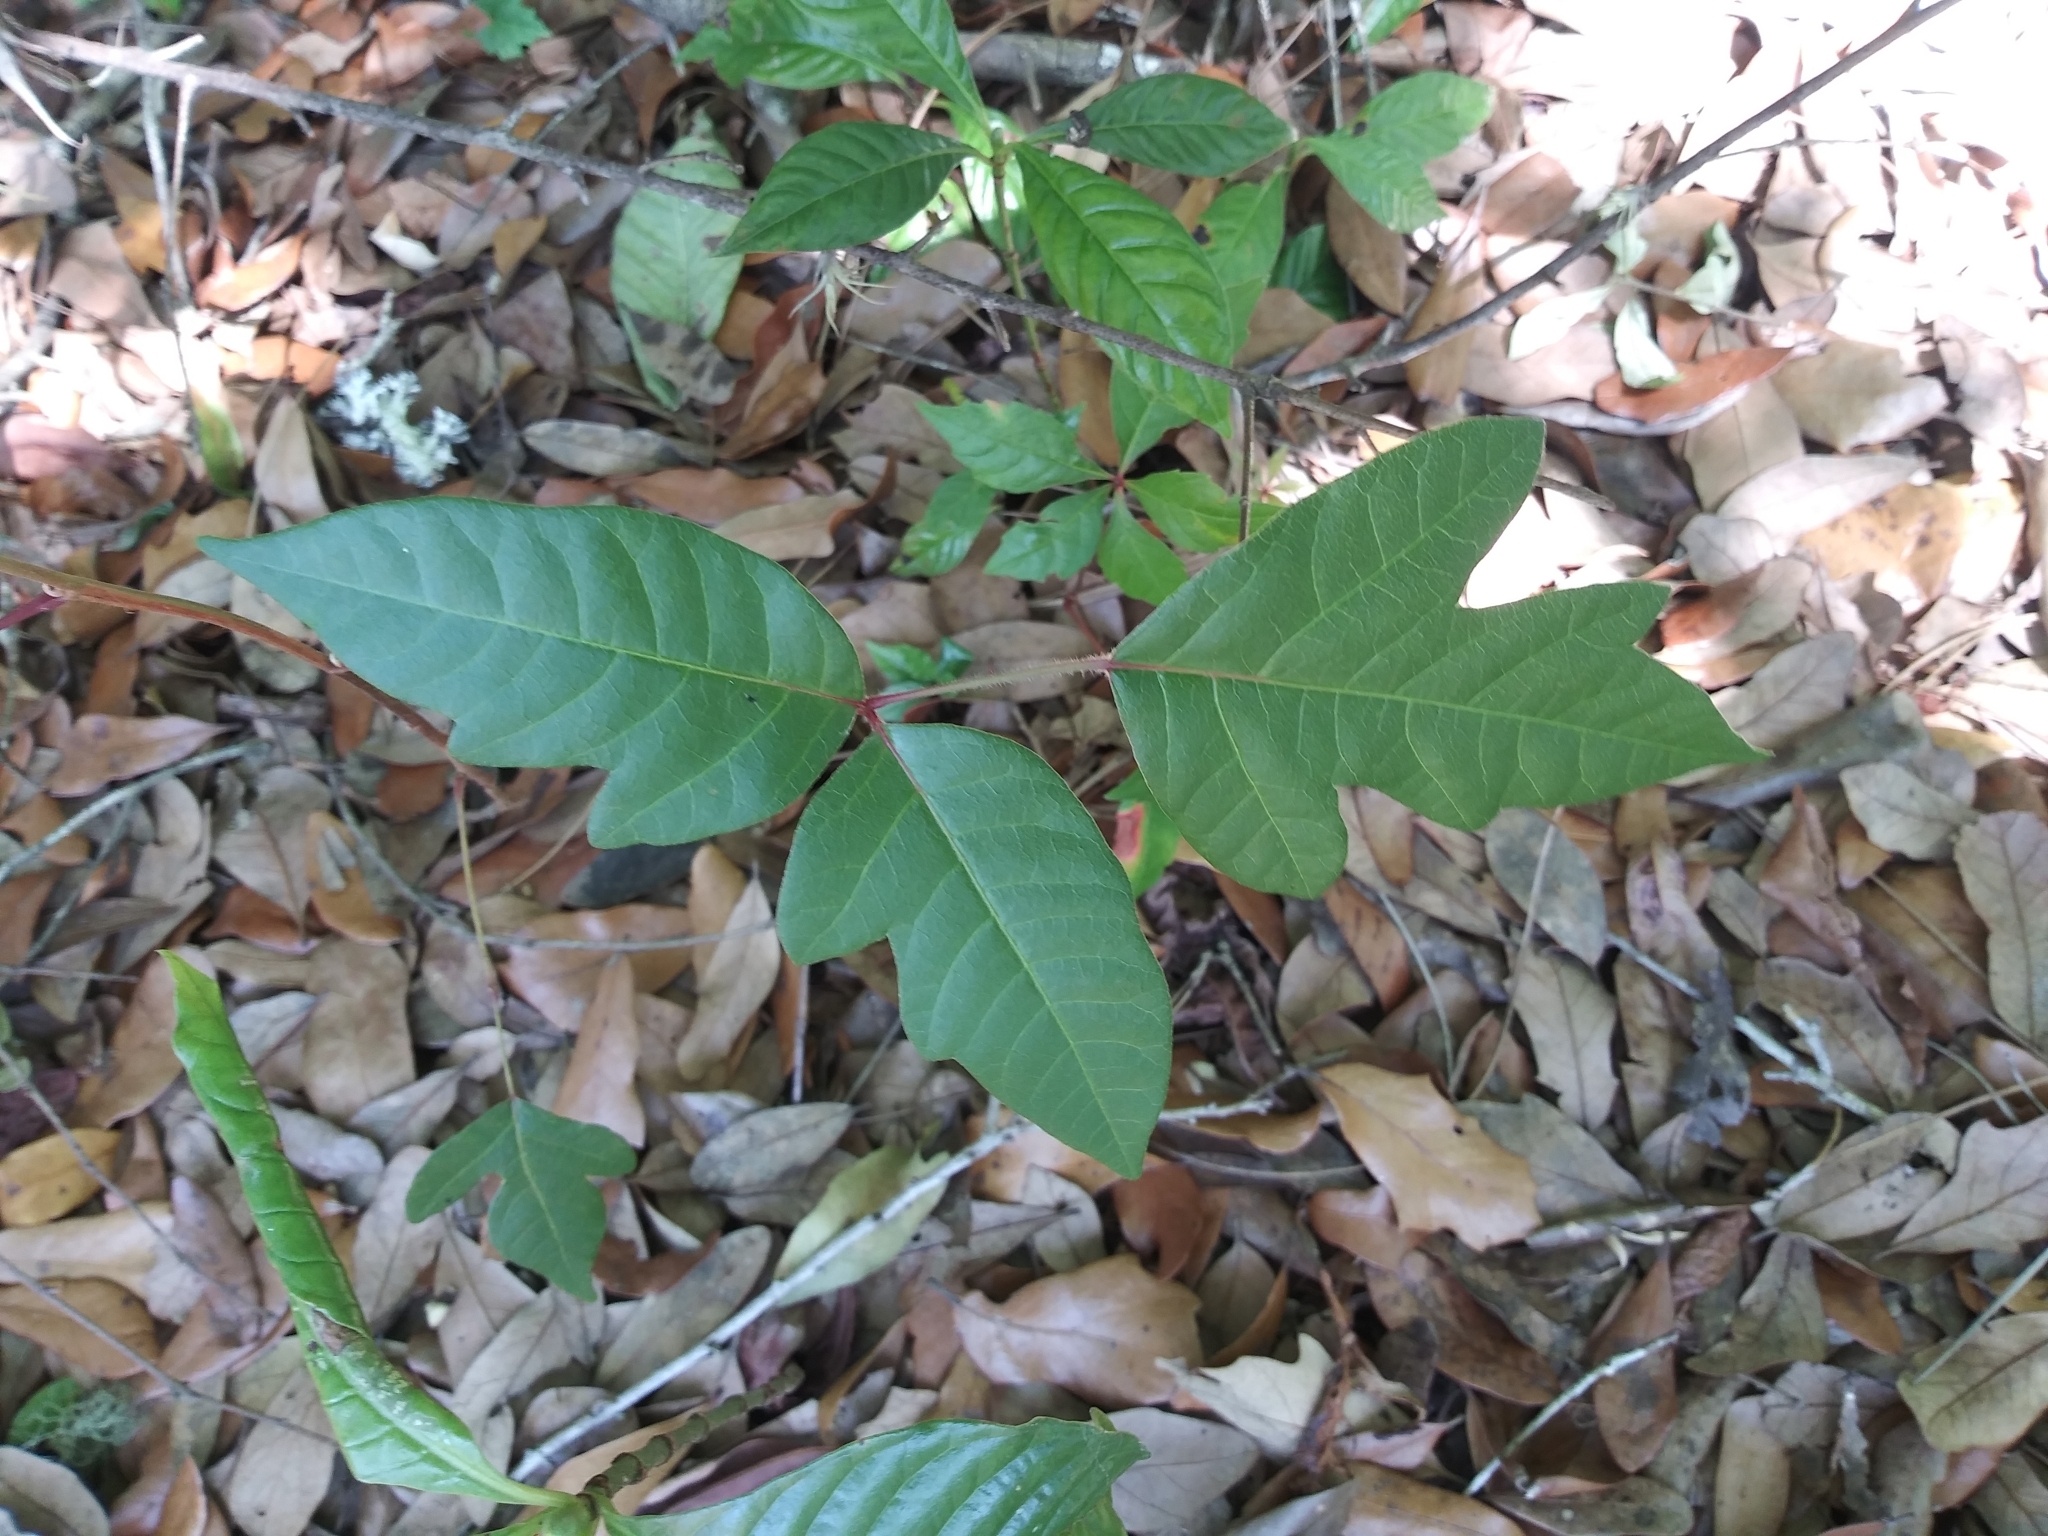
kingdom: Plantae
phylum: Tracheophyta
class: Magnoliopsida
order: Sapindales
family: Anacardiaceae
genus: Toxicodendron
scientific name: Toxicodendron radicans
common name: Poison ivy
